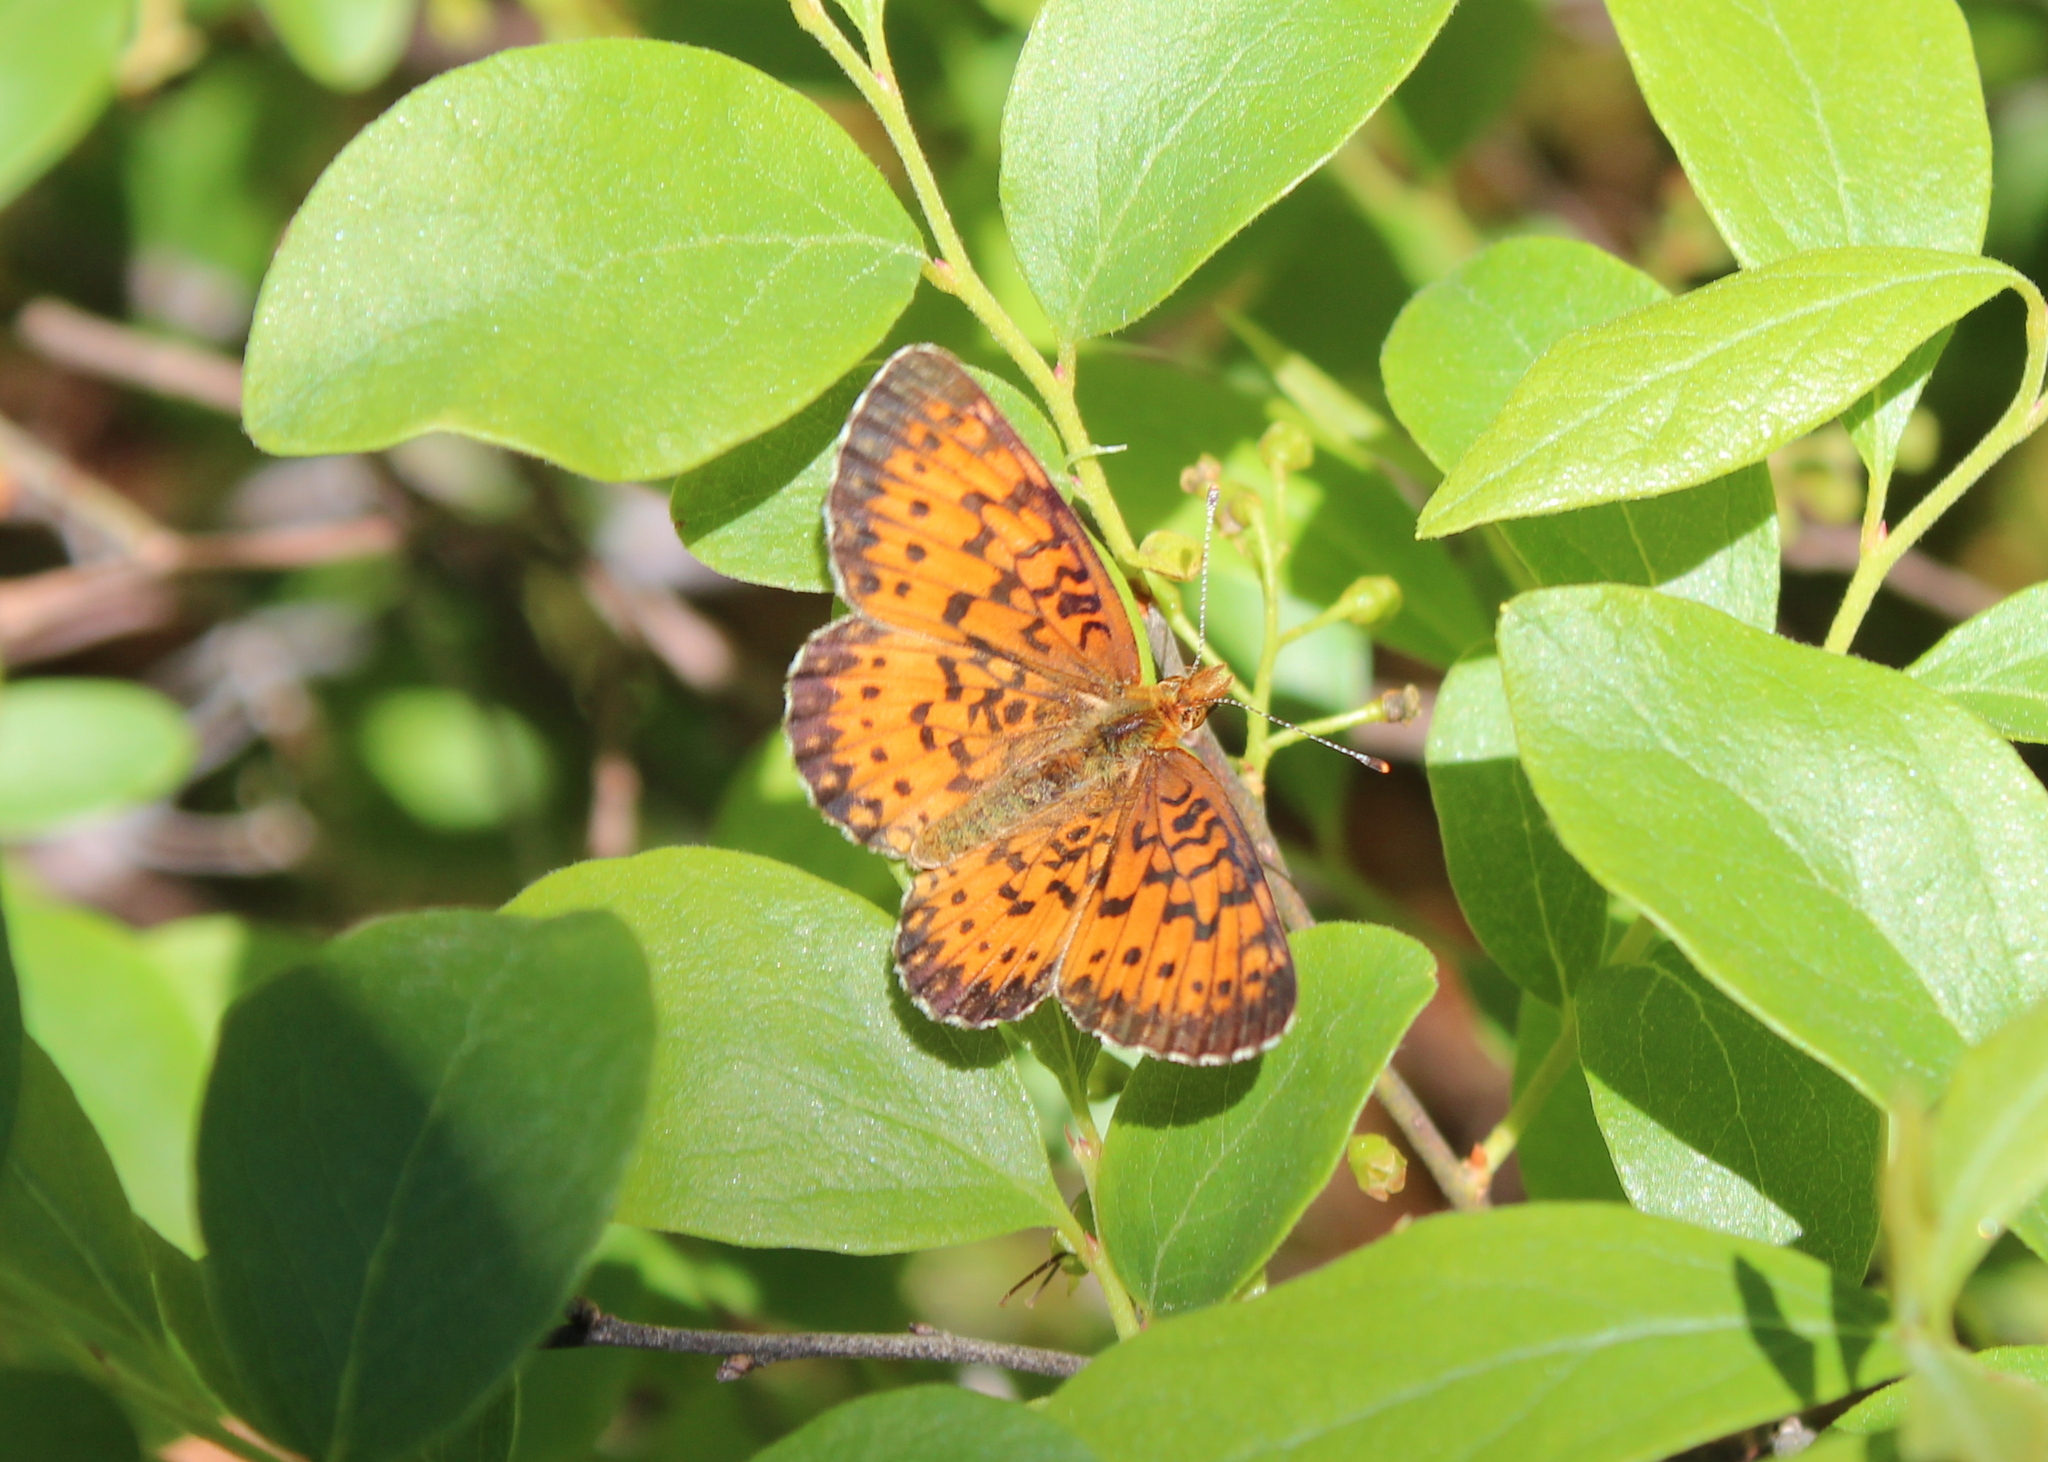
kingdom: Animalia
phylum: Arthropoda
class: Insecta
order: Lepidoptera
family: Nymphalidae
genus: Boloria
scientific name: Boloria
